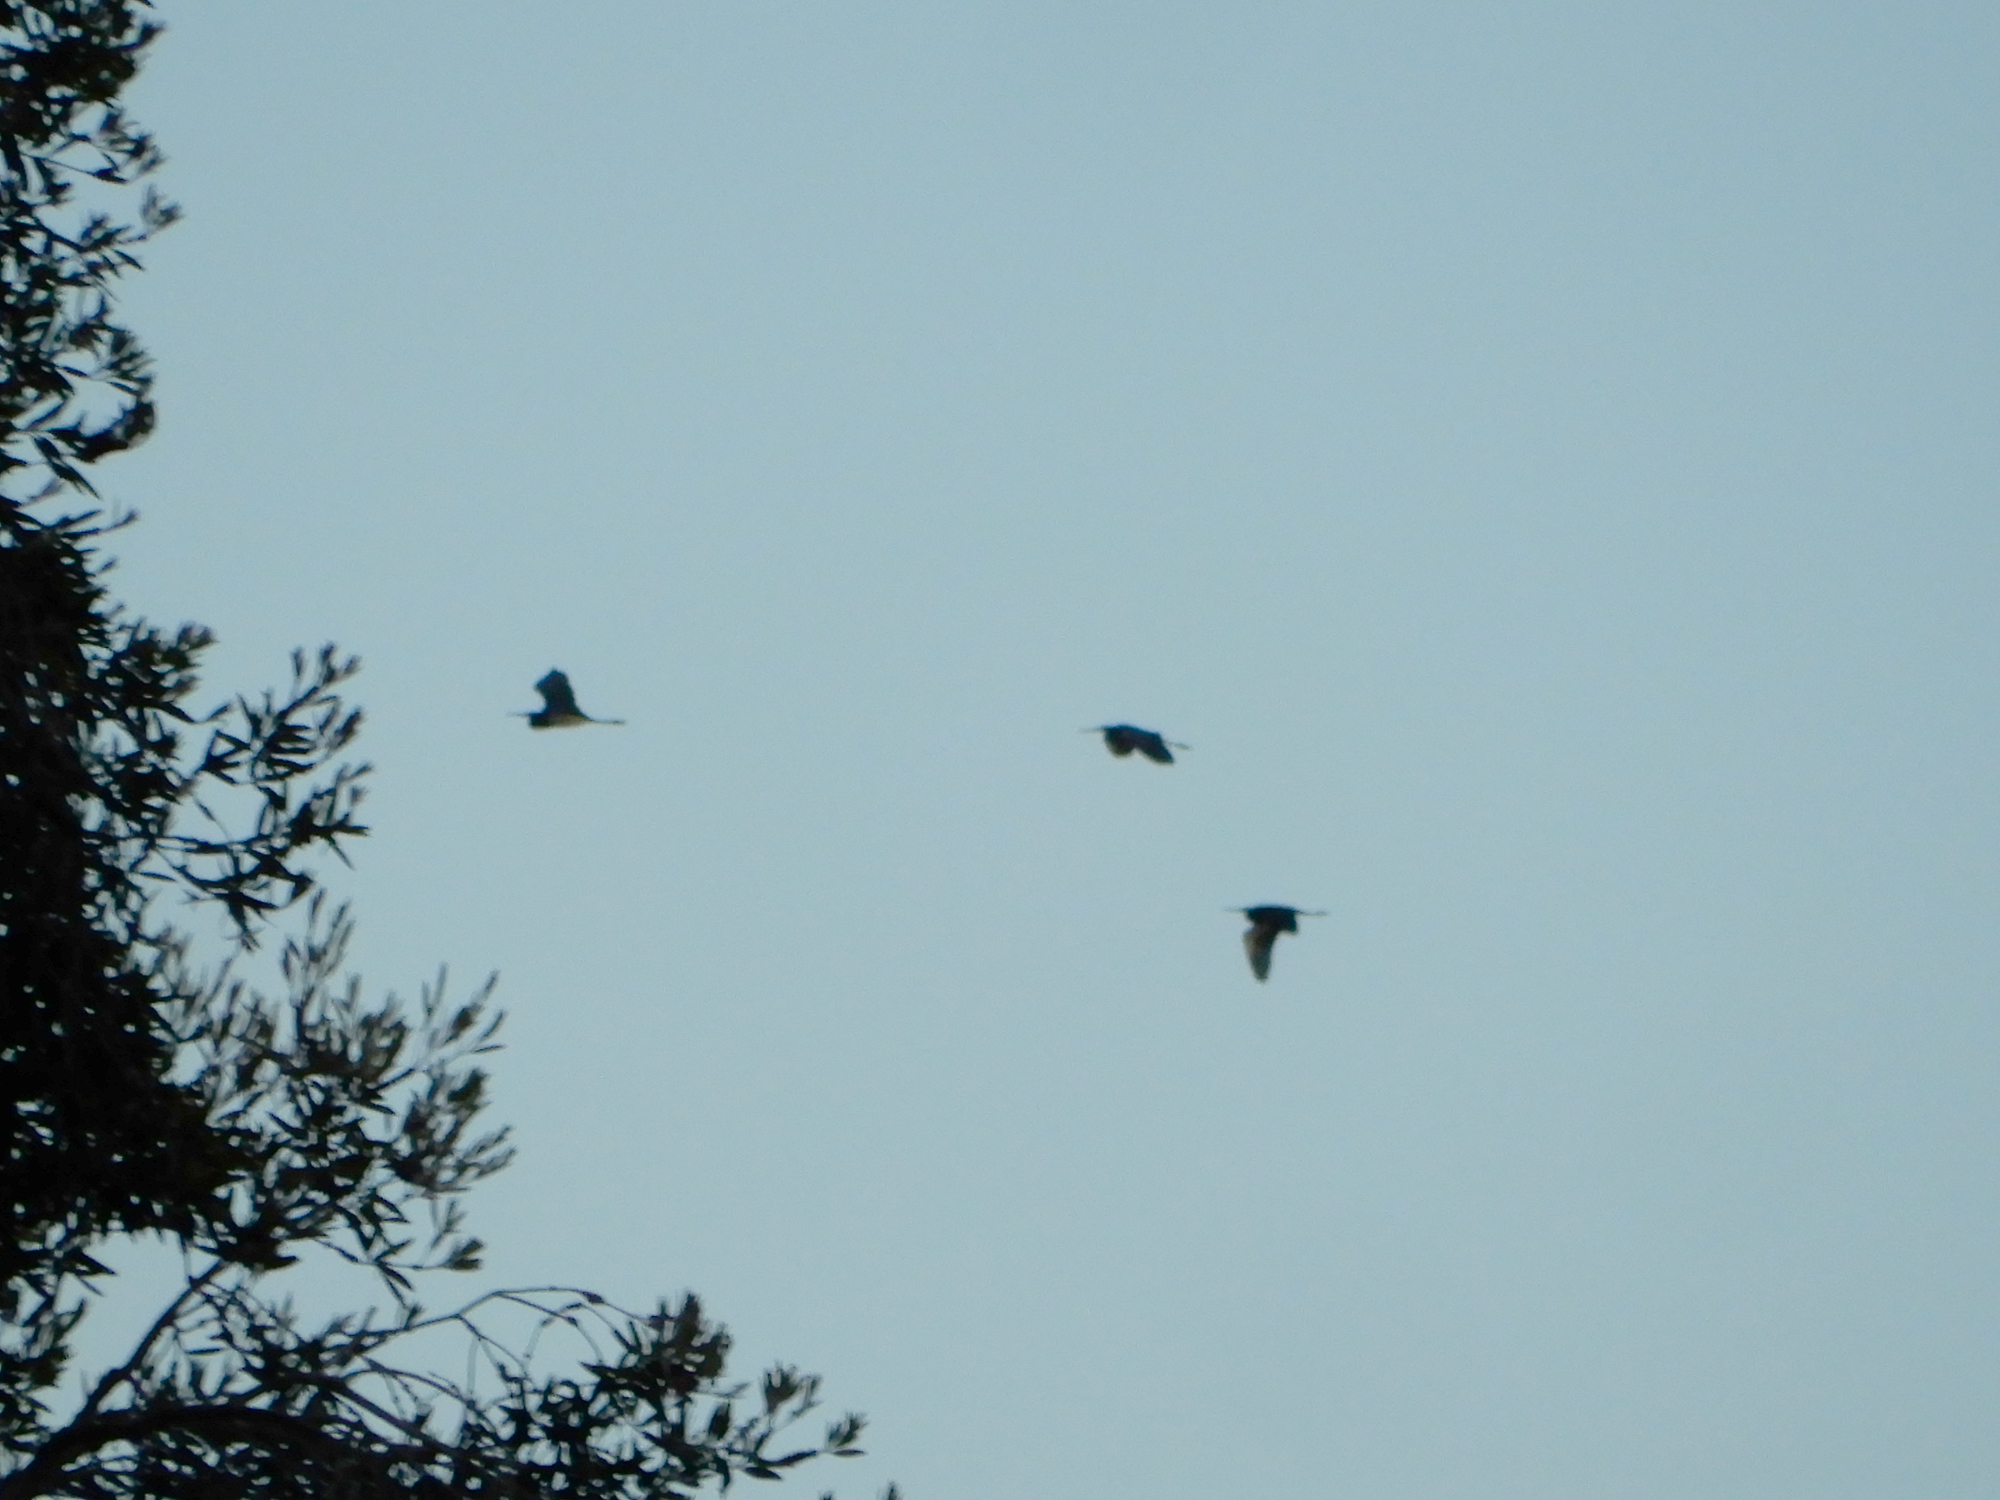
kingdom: Animalia
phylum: Chordata
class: Aves
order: Pelecaniformes
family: Ardeidae
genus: Egretta
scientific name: Egretta tricolor
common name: Tricolored heron
